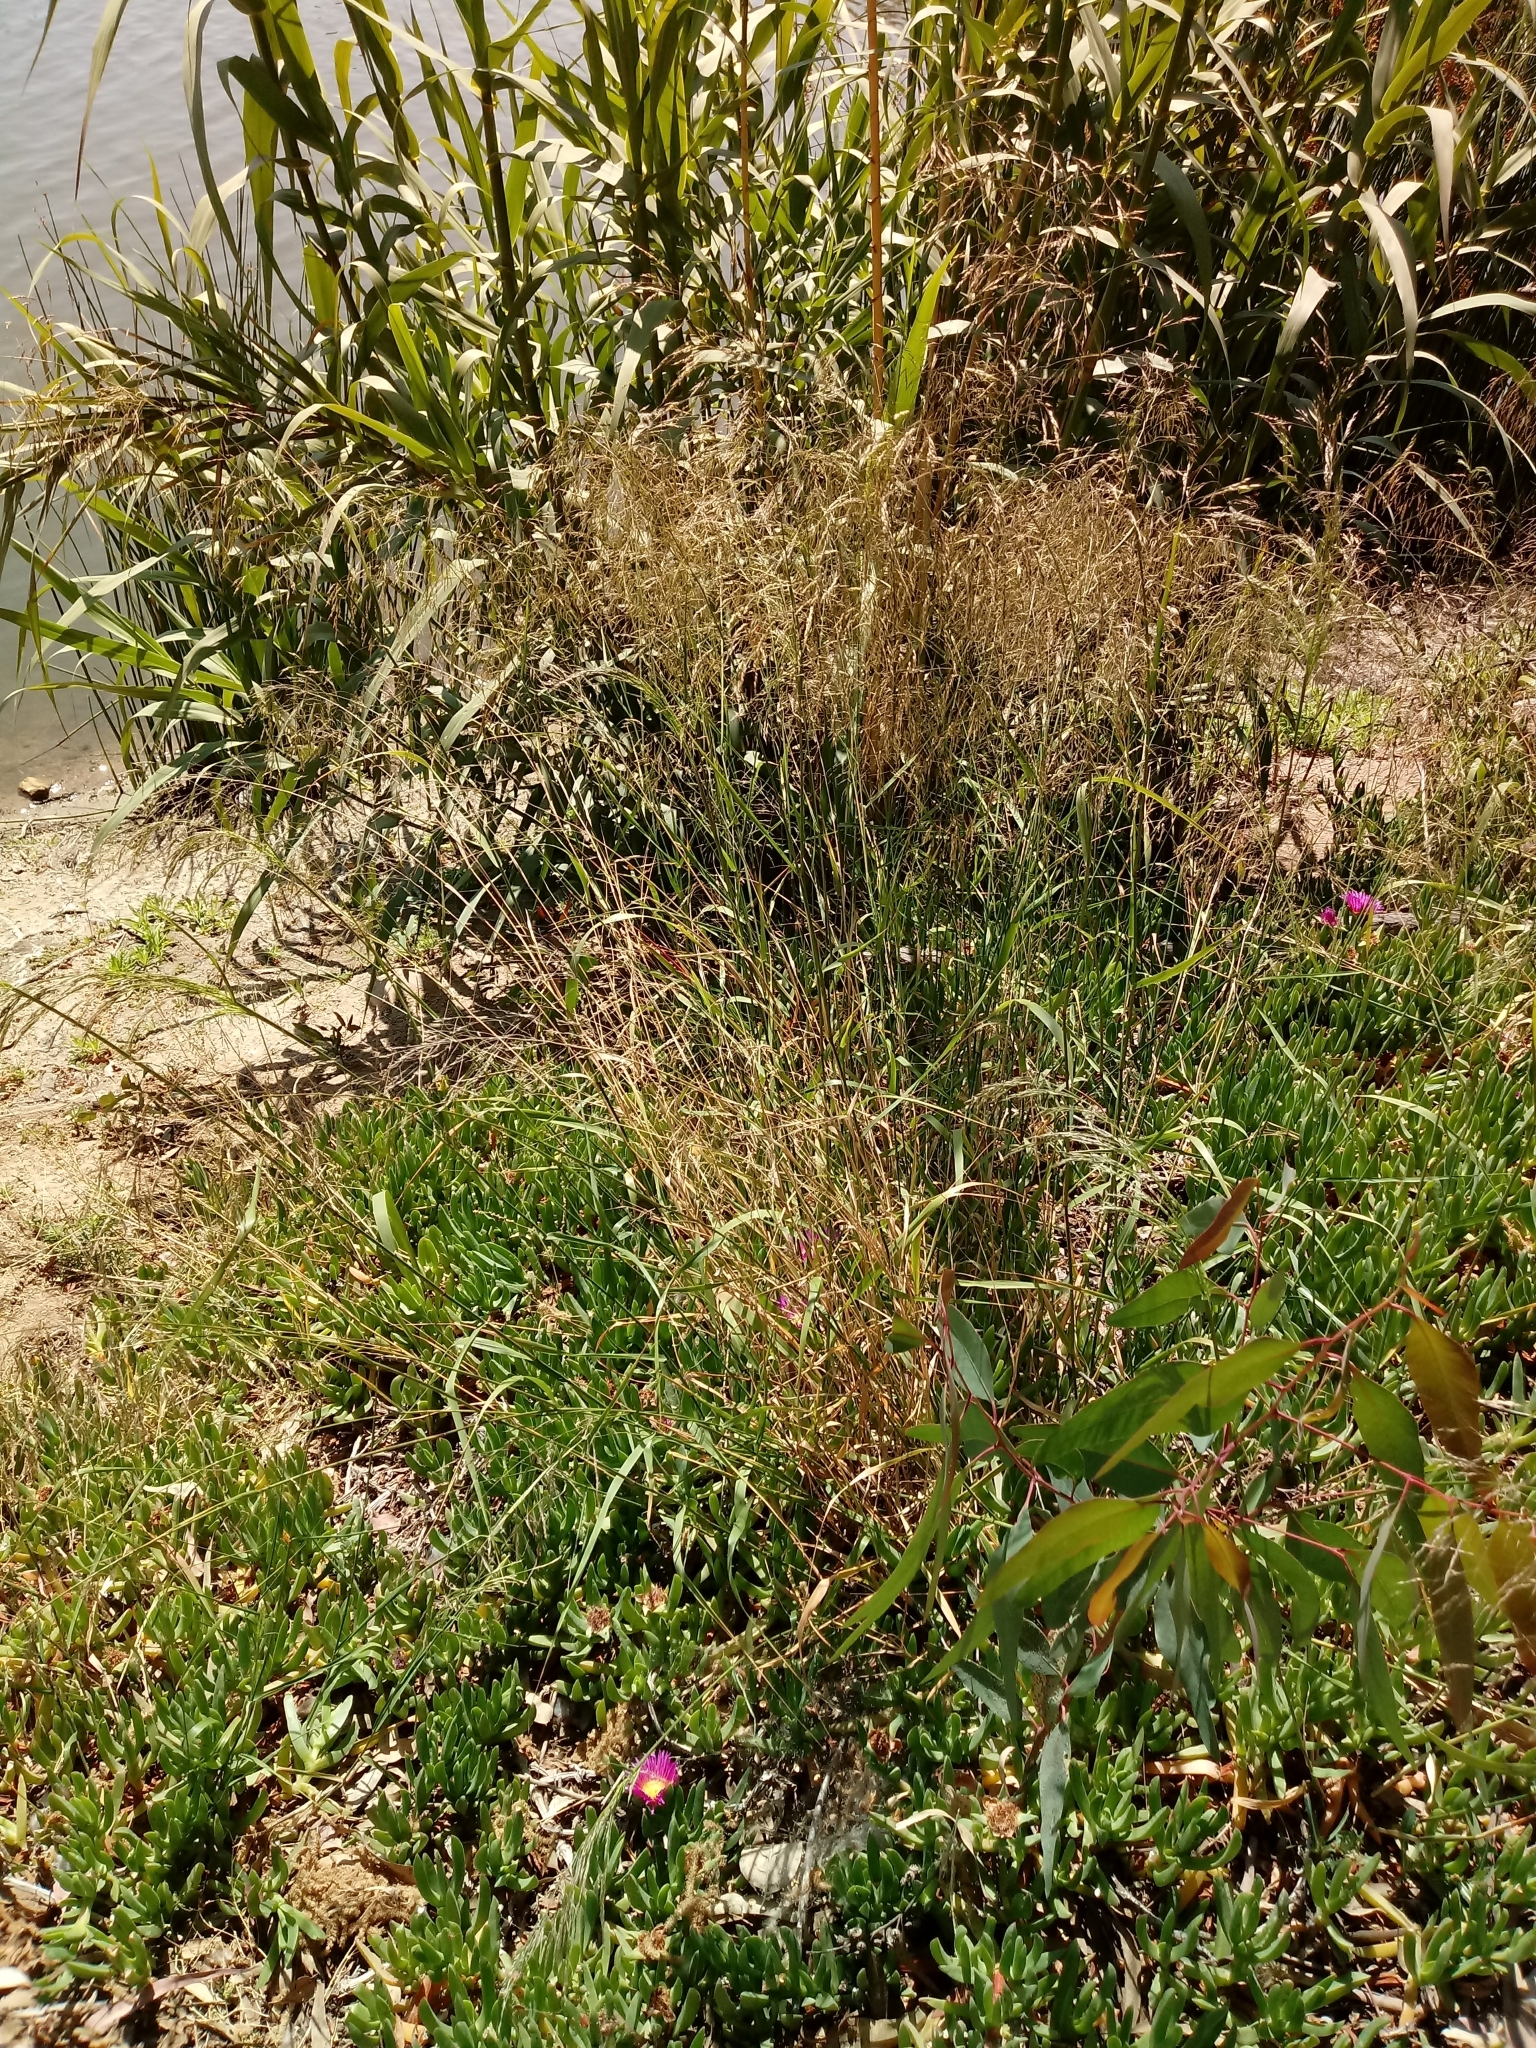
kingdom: Plantae
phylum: Tracheophyta
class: Liliopsida
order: Poales
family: Poaceae
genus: Oloptum
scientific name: Oloptum miliaceum
